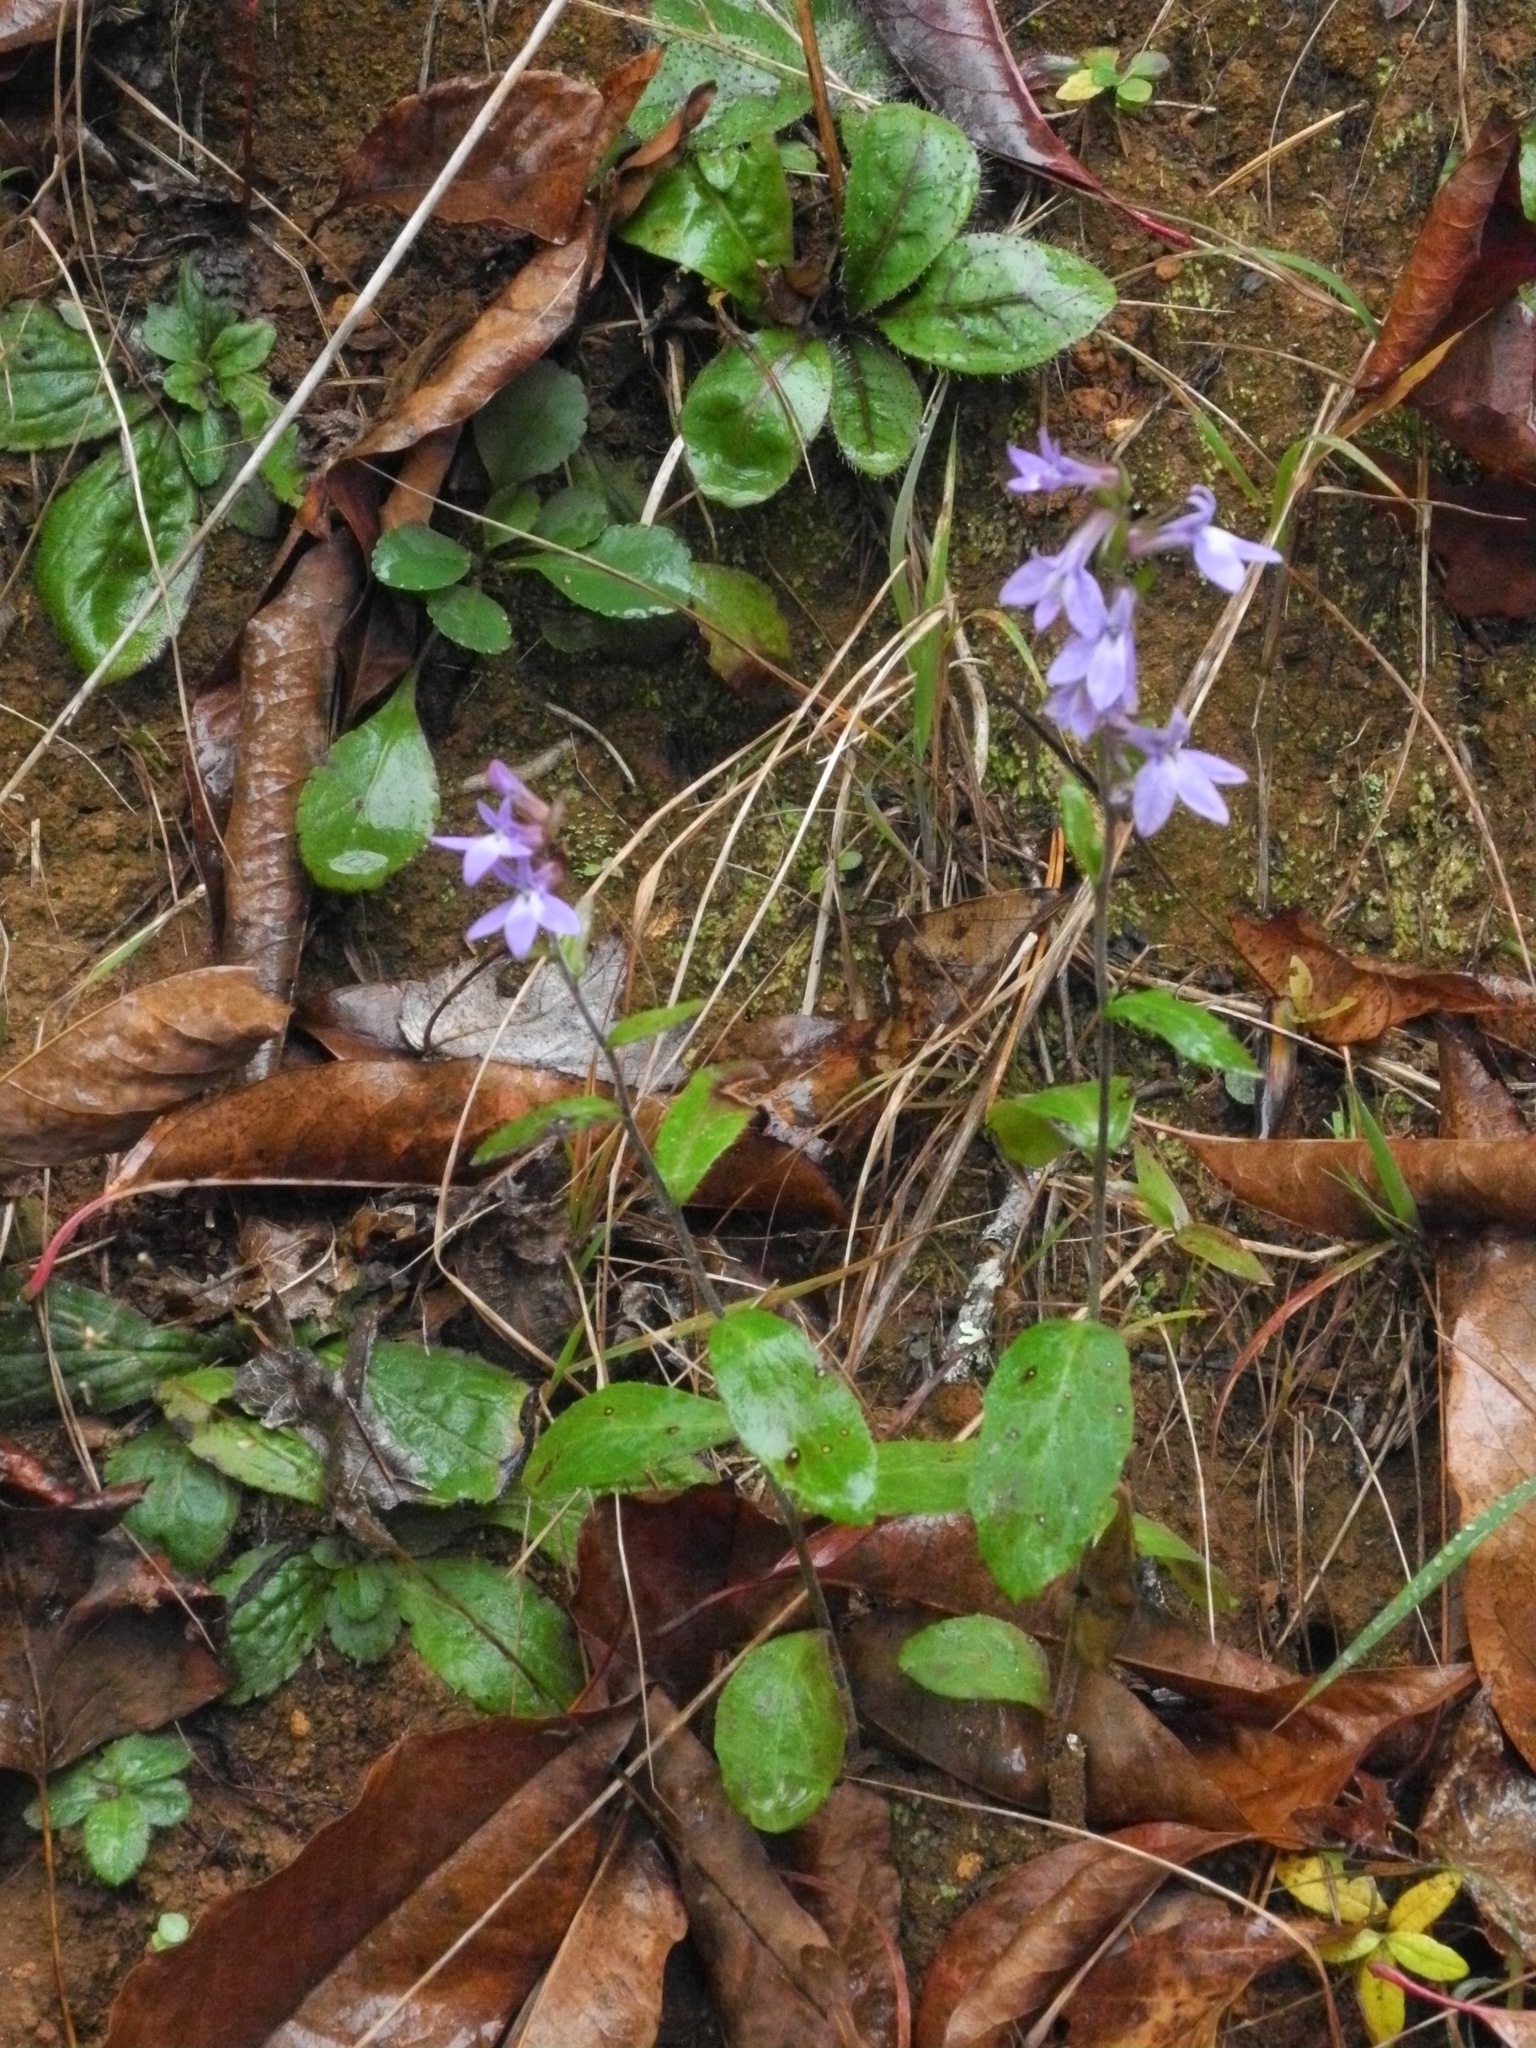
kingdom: Plantae
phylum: Tracheophyta
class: Magnoliopsida
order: Asterales
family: Campanulaceae
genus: Lobelia
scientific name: Lobelia puberula
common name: Purple dewdrop
